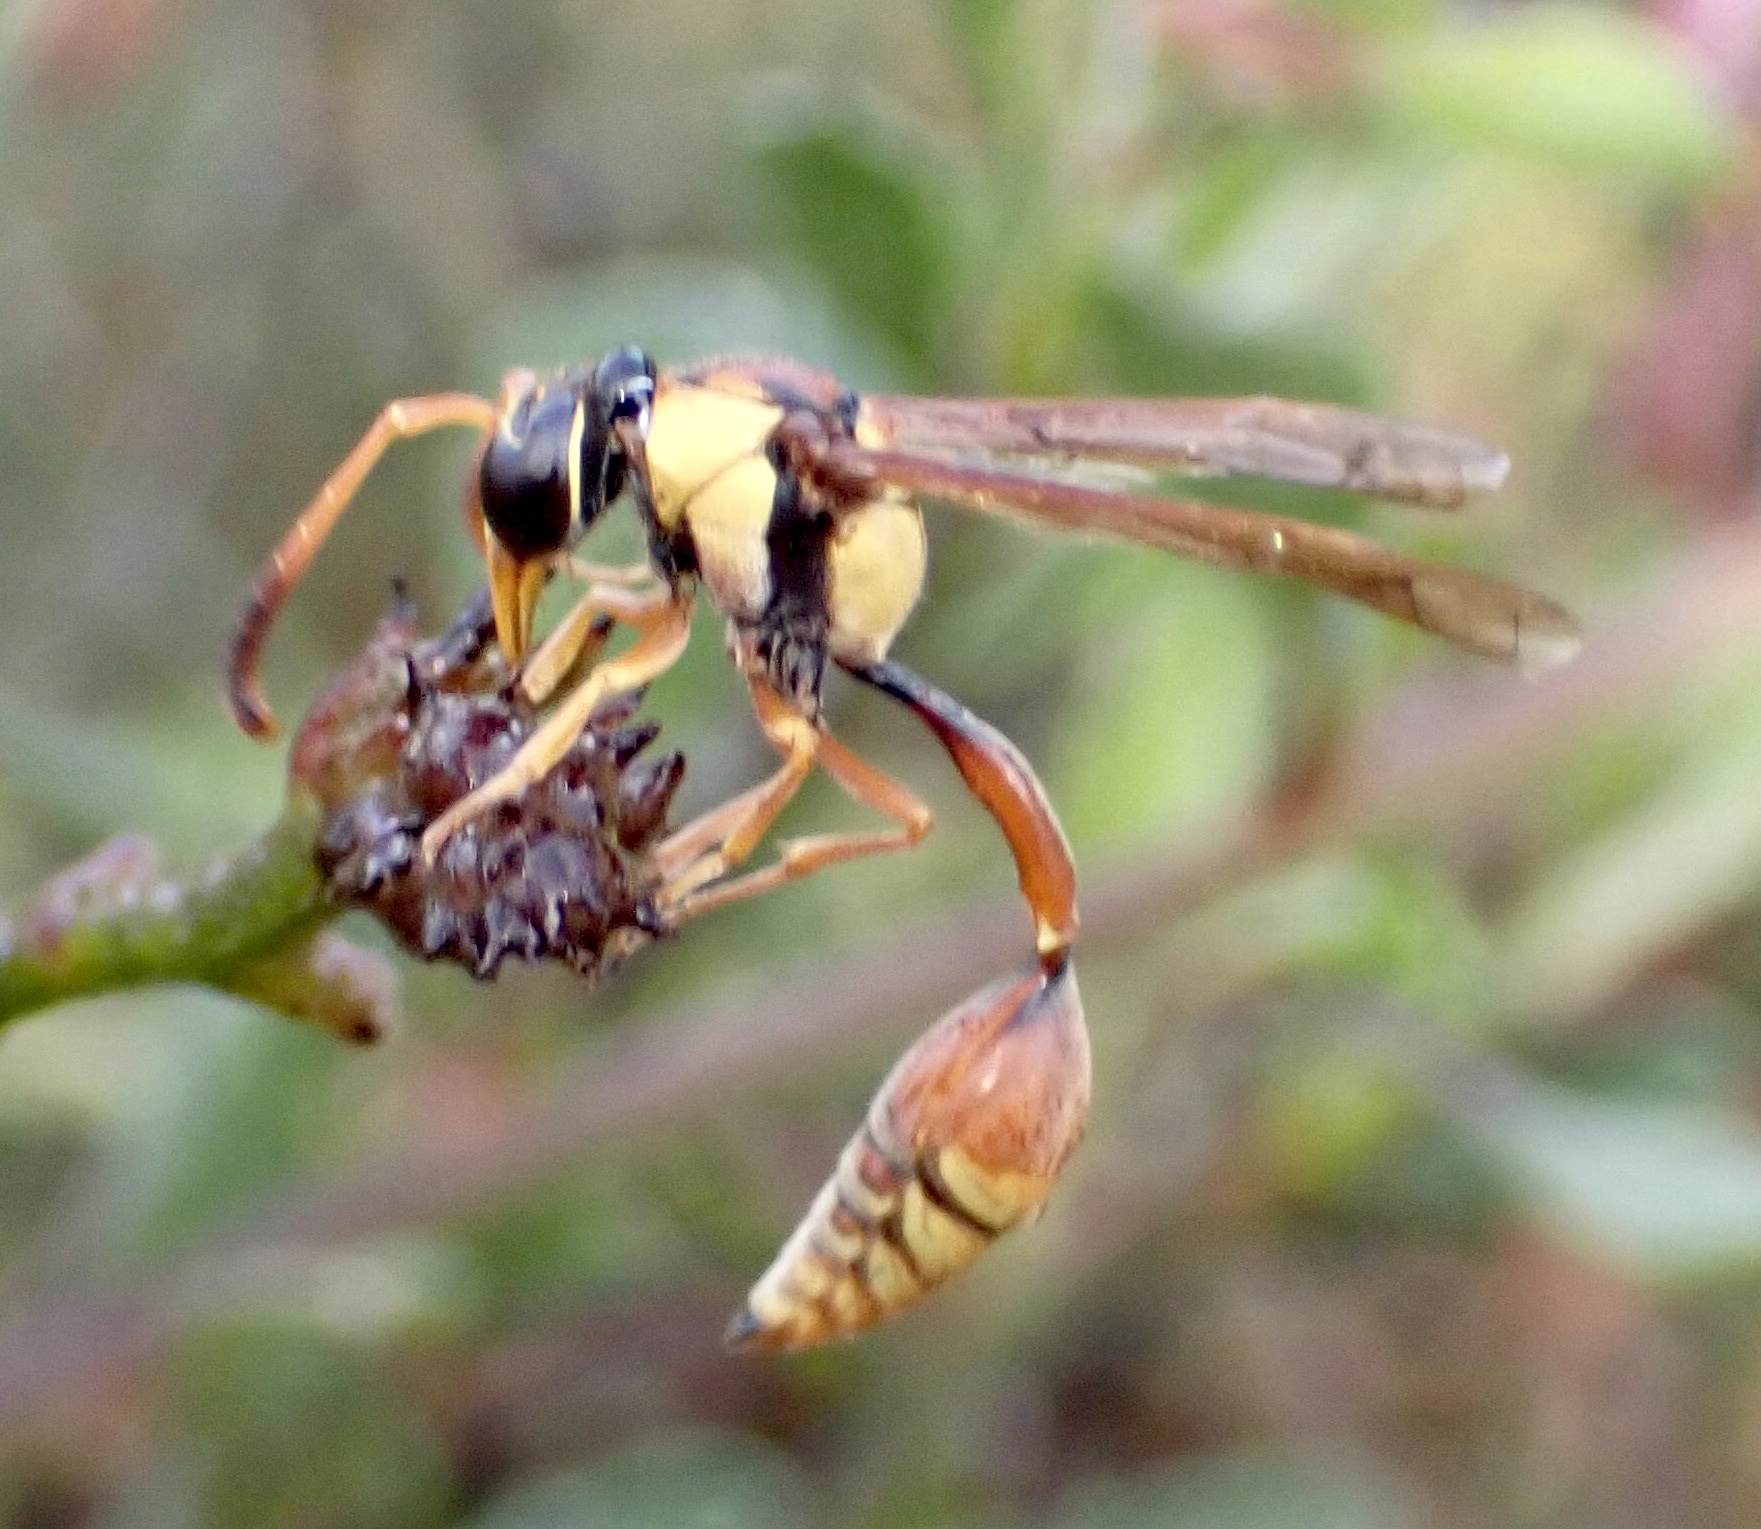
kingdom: Animalia
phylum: Arthropoda
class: Insecta
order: Hymenoptera
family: Eumenidae
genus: Zeta
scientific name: Zeta argillaceum
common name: Potter wasp
